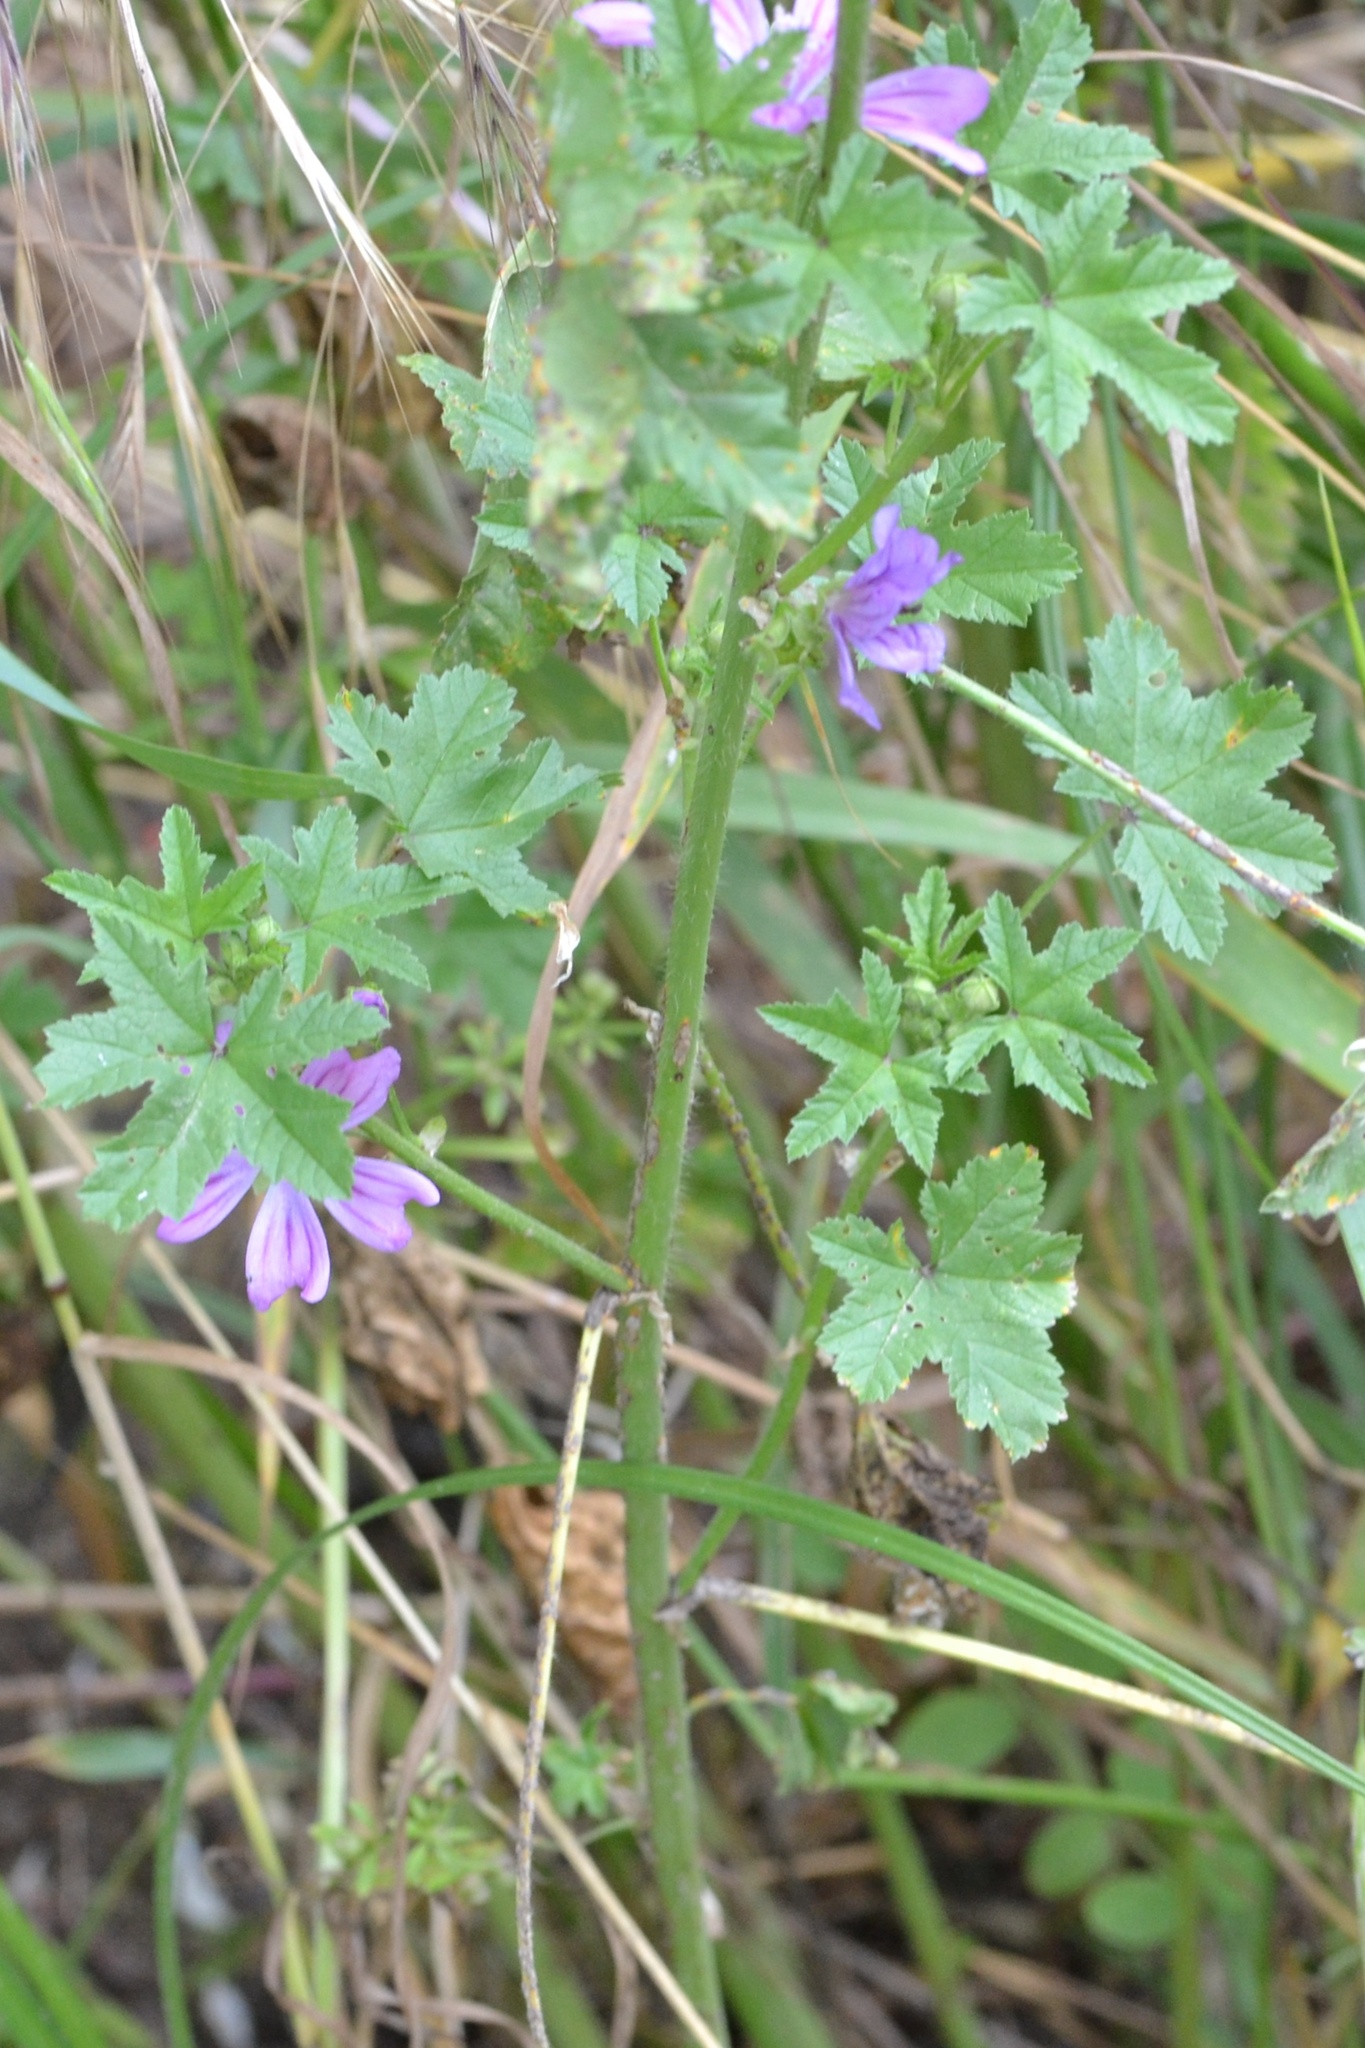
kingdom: Plantae
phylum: Tracheophyta
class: Magnoliopsida
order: Malvales
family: Malvaceae
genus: Malva
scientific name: Malva sylvestris
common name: Common mallow
